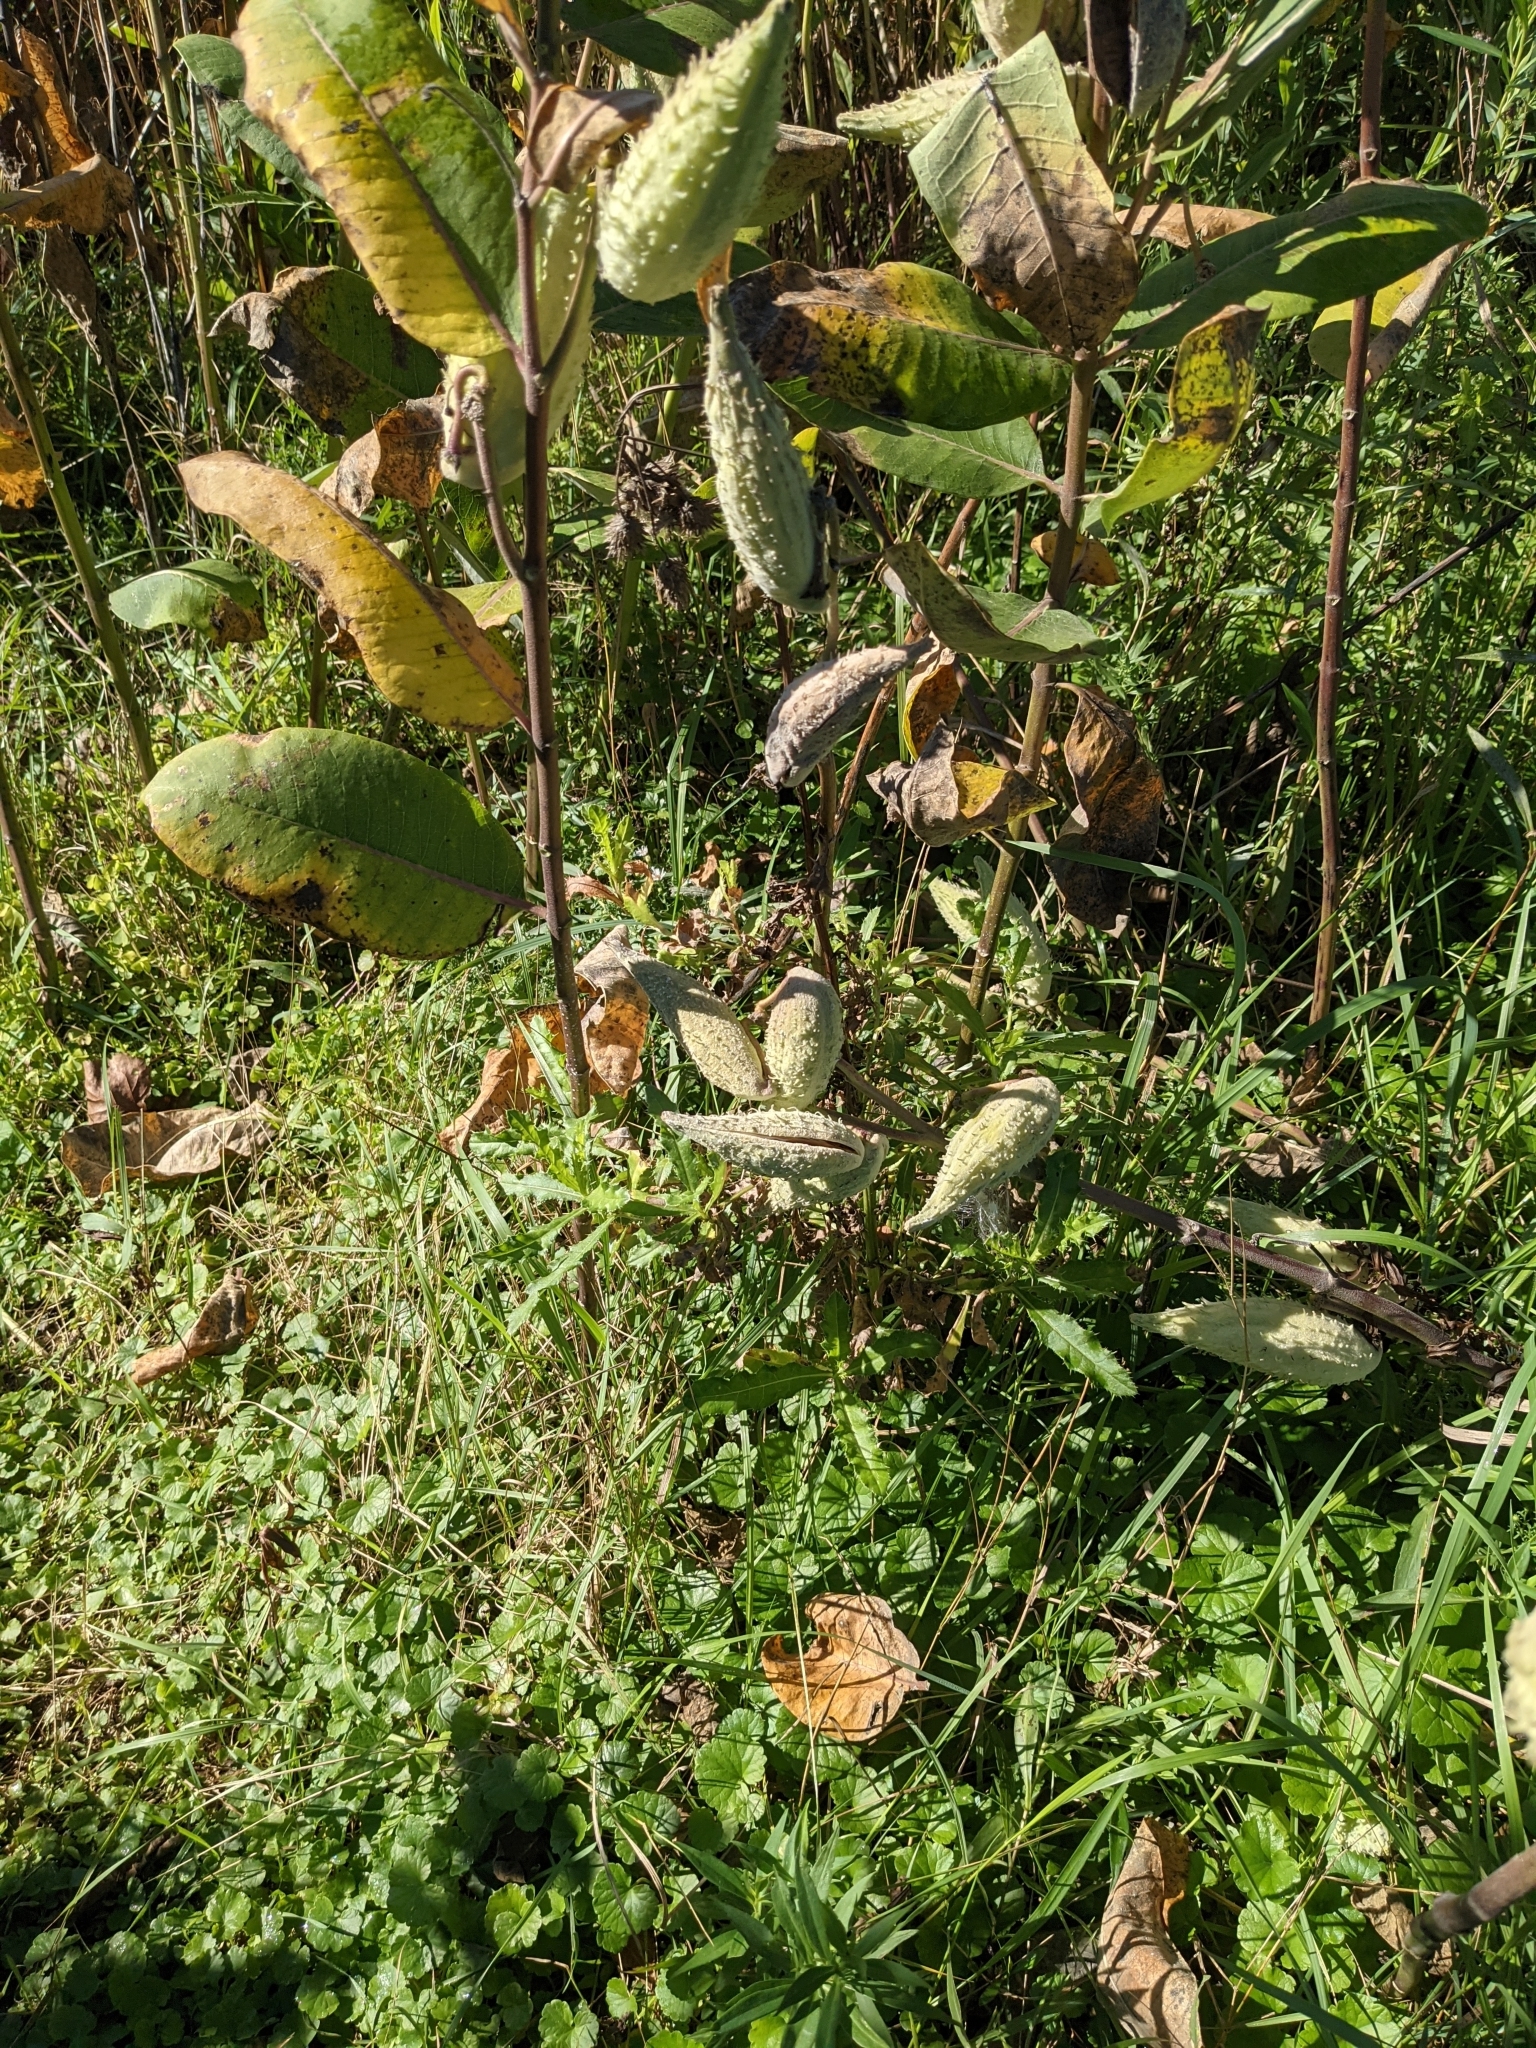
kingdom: Plantae
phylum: Tracheophyta
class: Magnoliopsida
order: Gentianales
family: Apocynaceae
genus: Asclepias
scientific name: Asclepias syriaca
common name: Common milkweed
